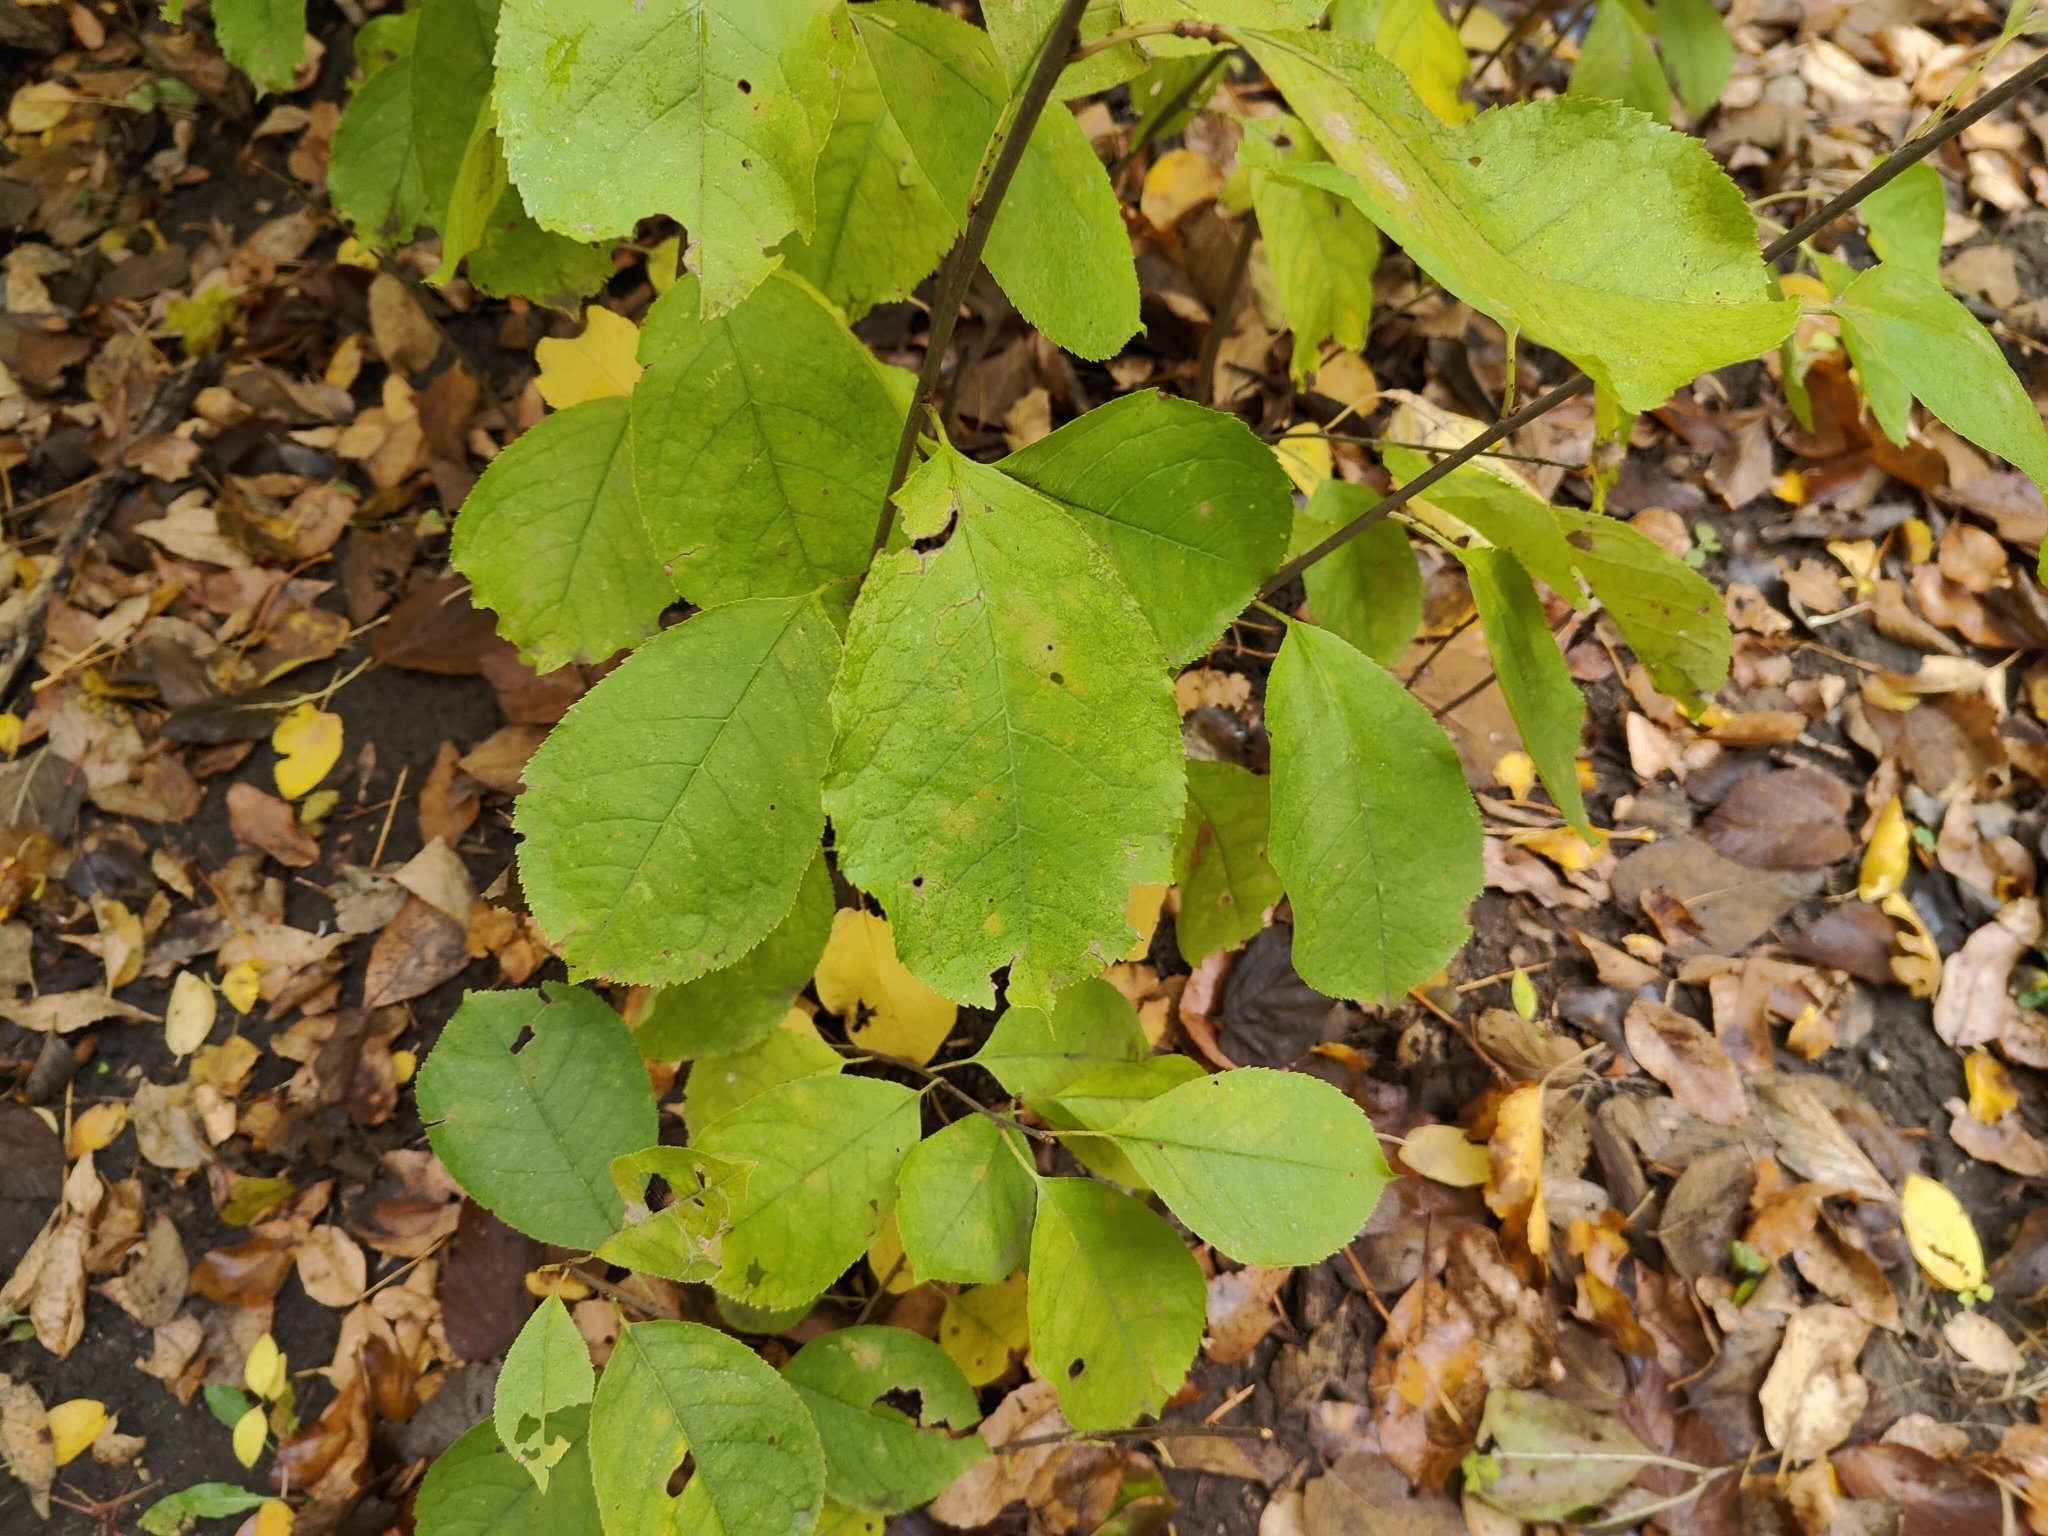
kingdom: Plantae
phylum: Tracheophyta
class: Magnoliopsida
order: Rosales
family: Rosaceae
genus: Prunus
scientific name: Prunus virginiana
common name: Chokecherry
